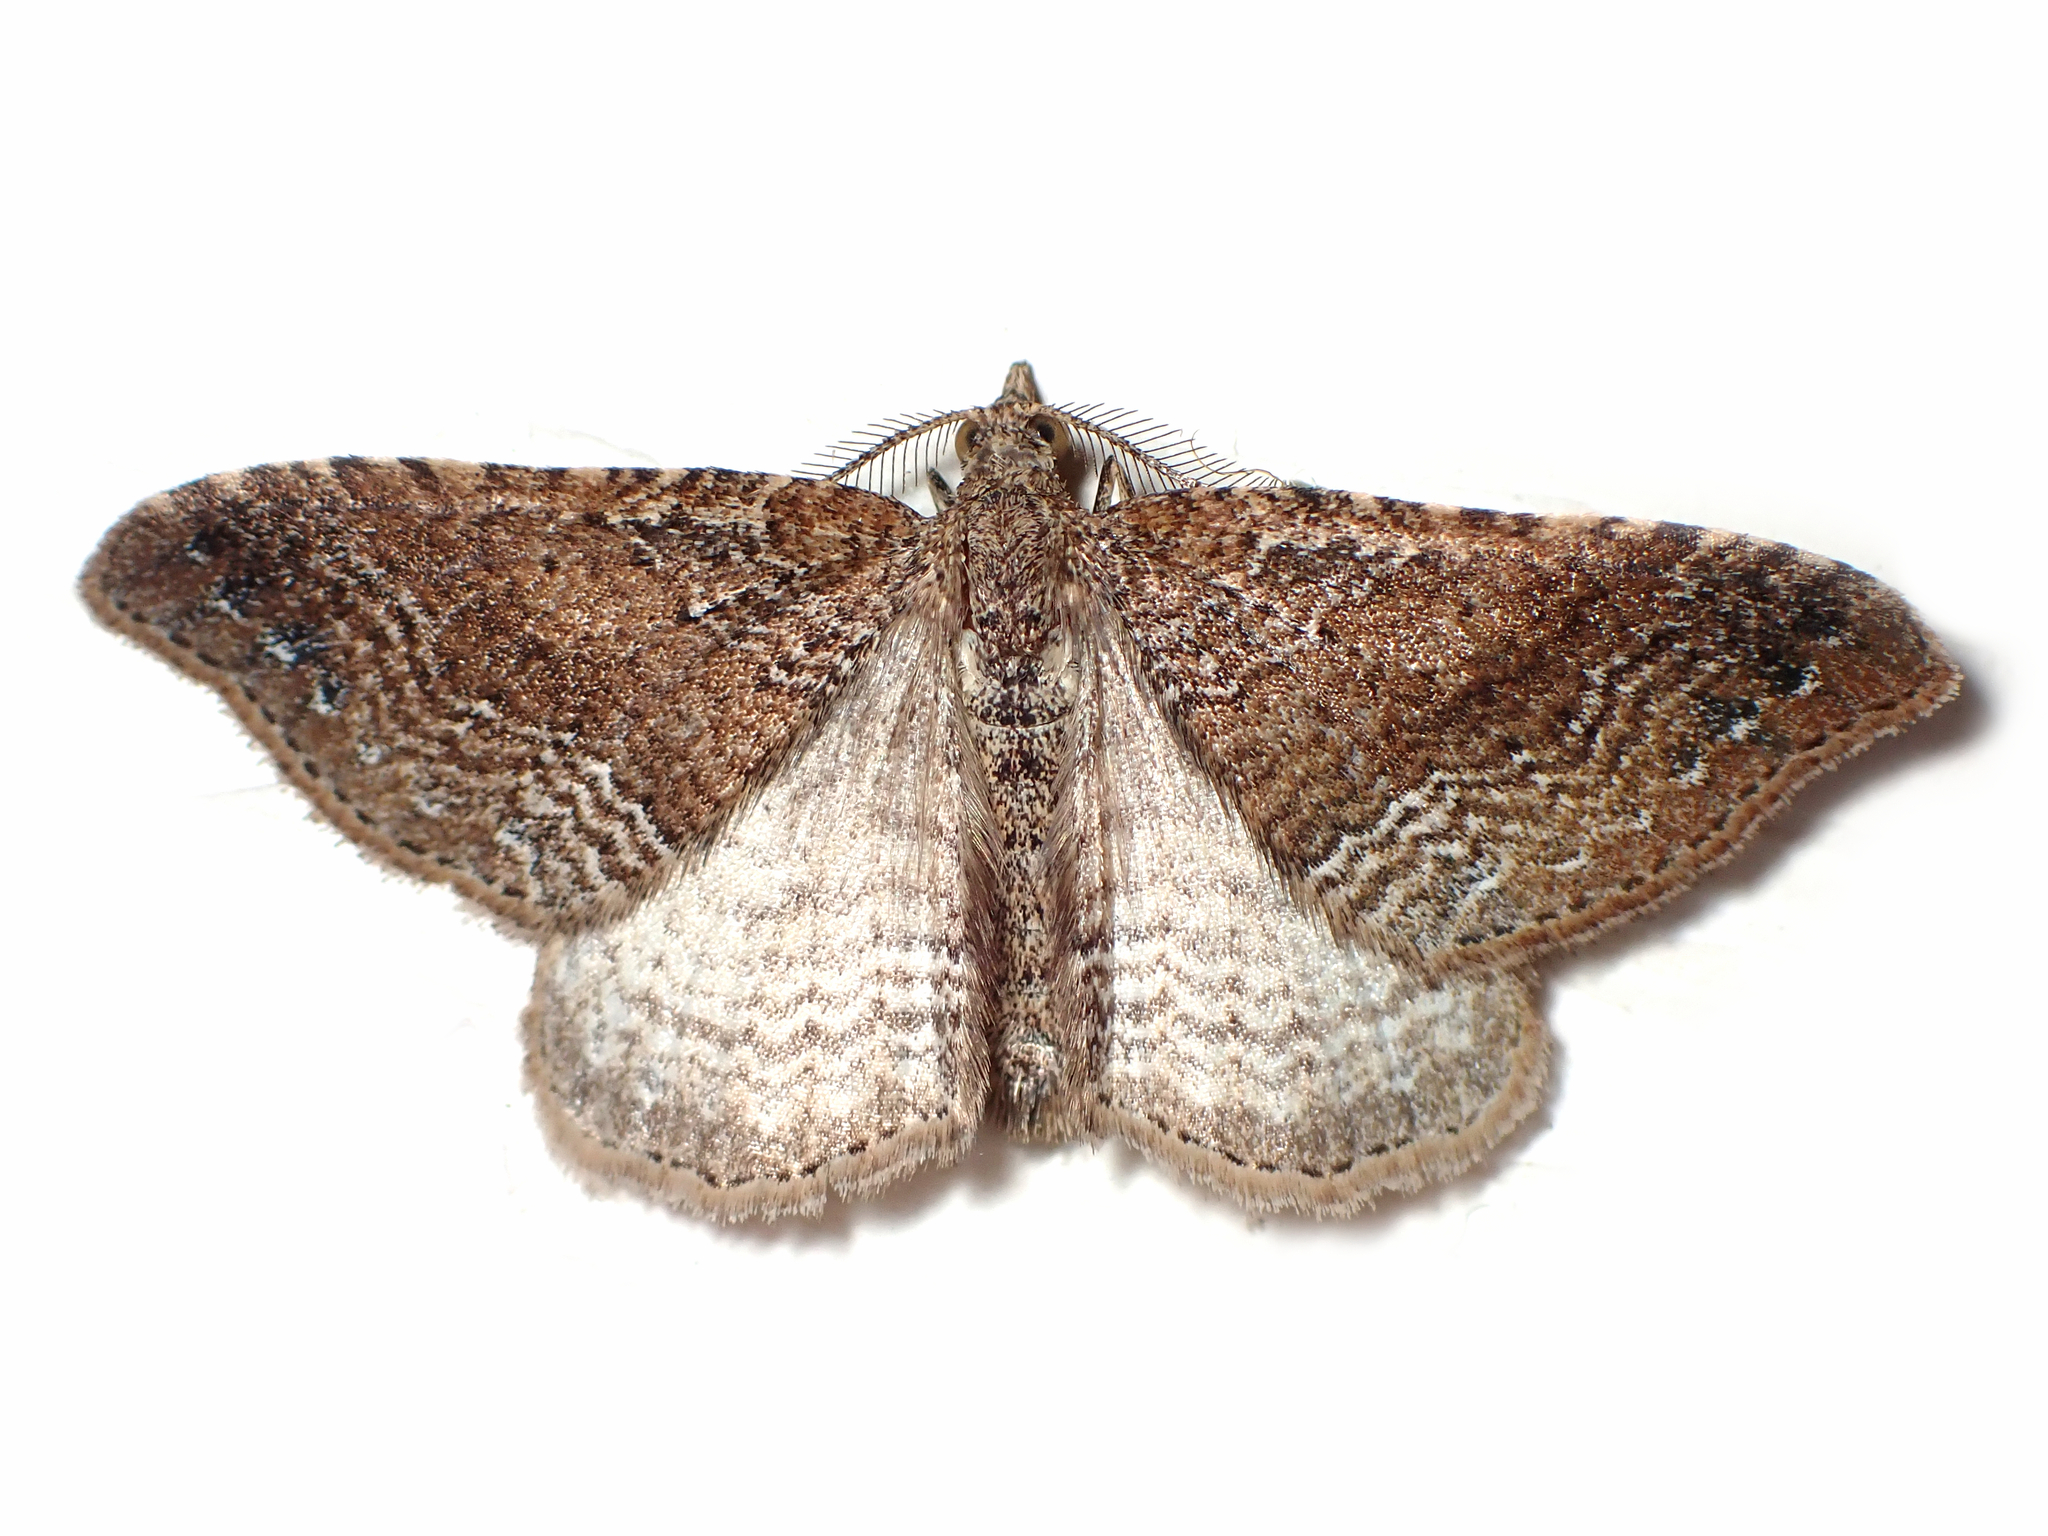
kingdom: Animalia
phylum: Arthropoda
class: Insecta
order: Lepidoptera
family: Geometridae
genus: Homodotis
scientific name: Homodotis falcata
